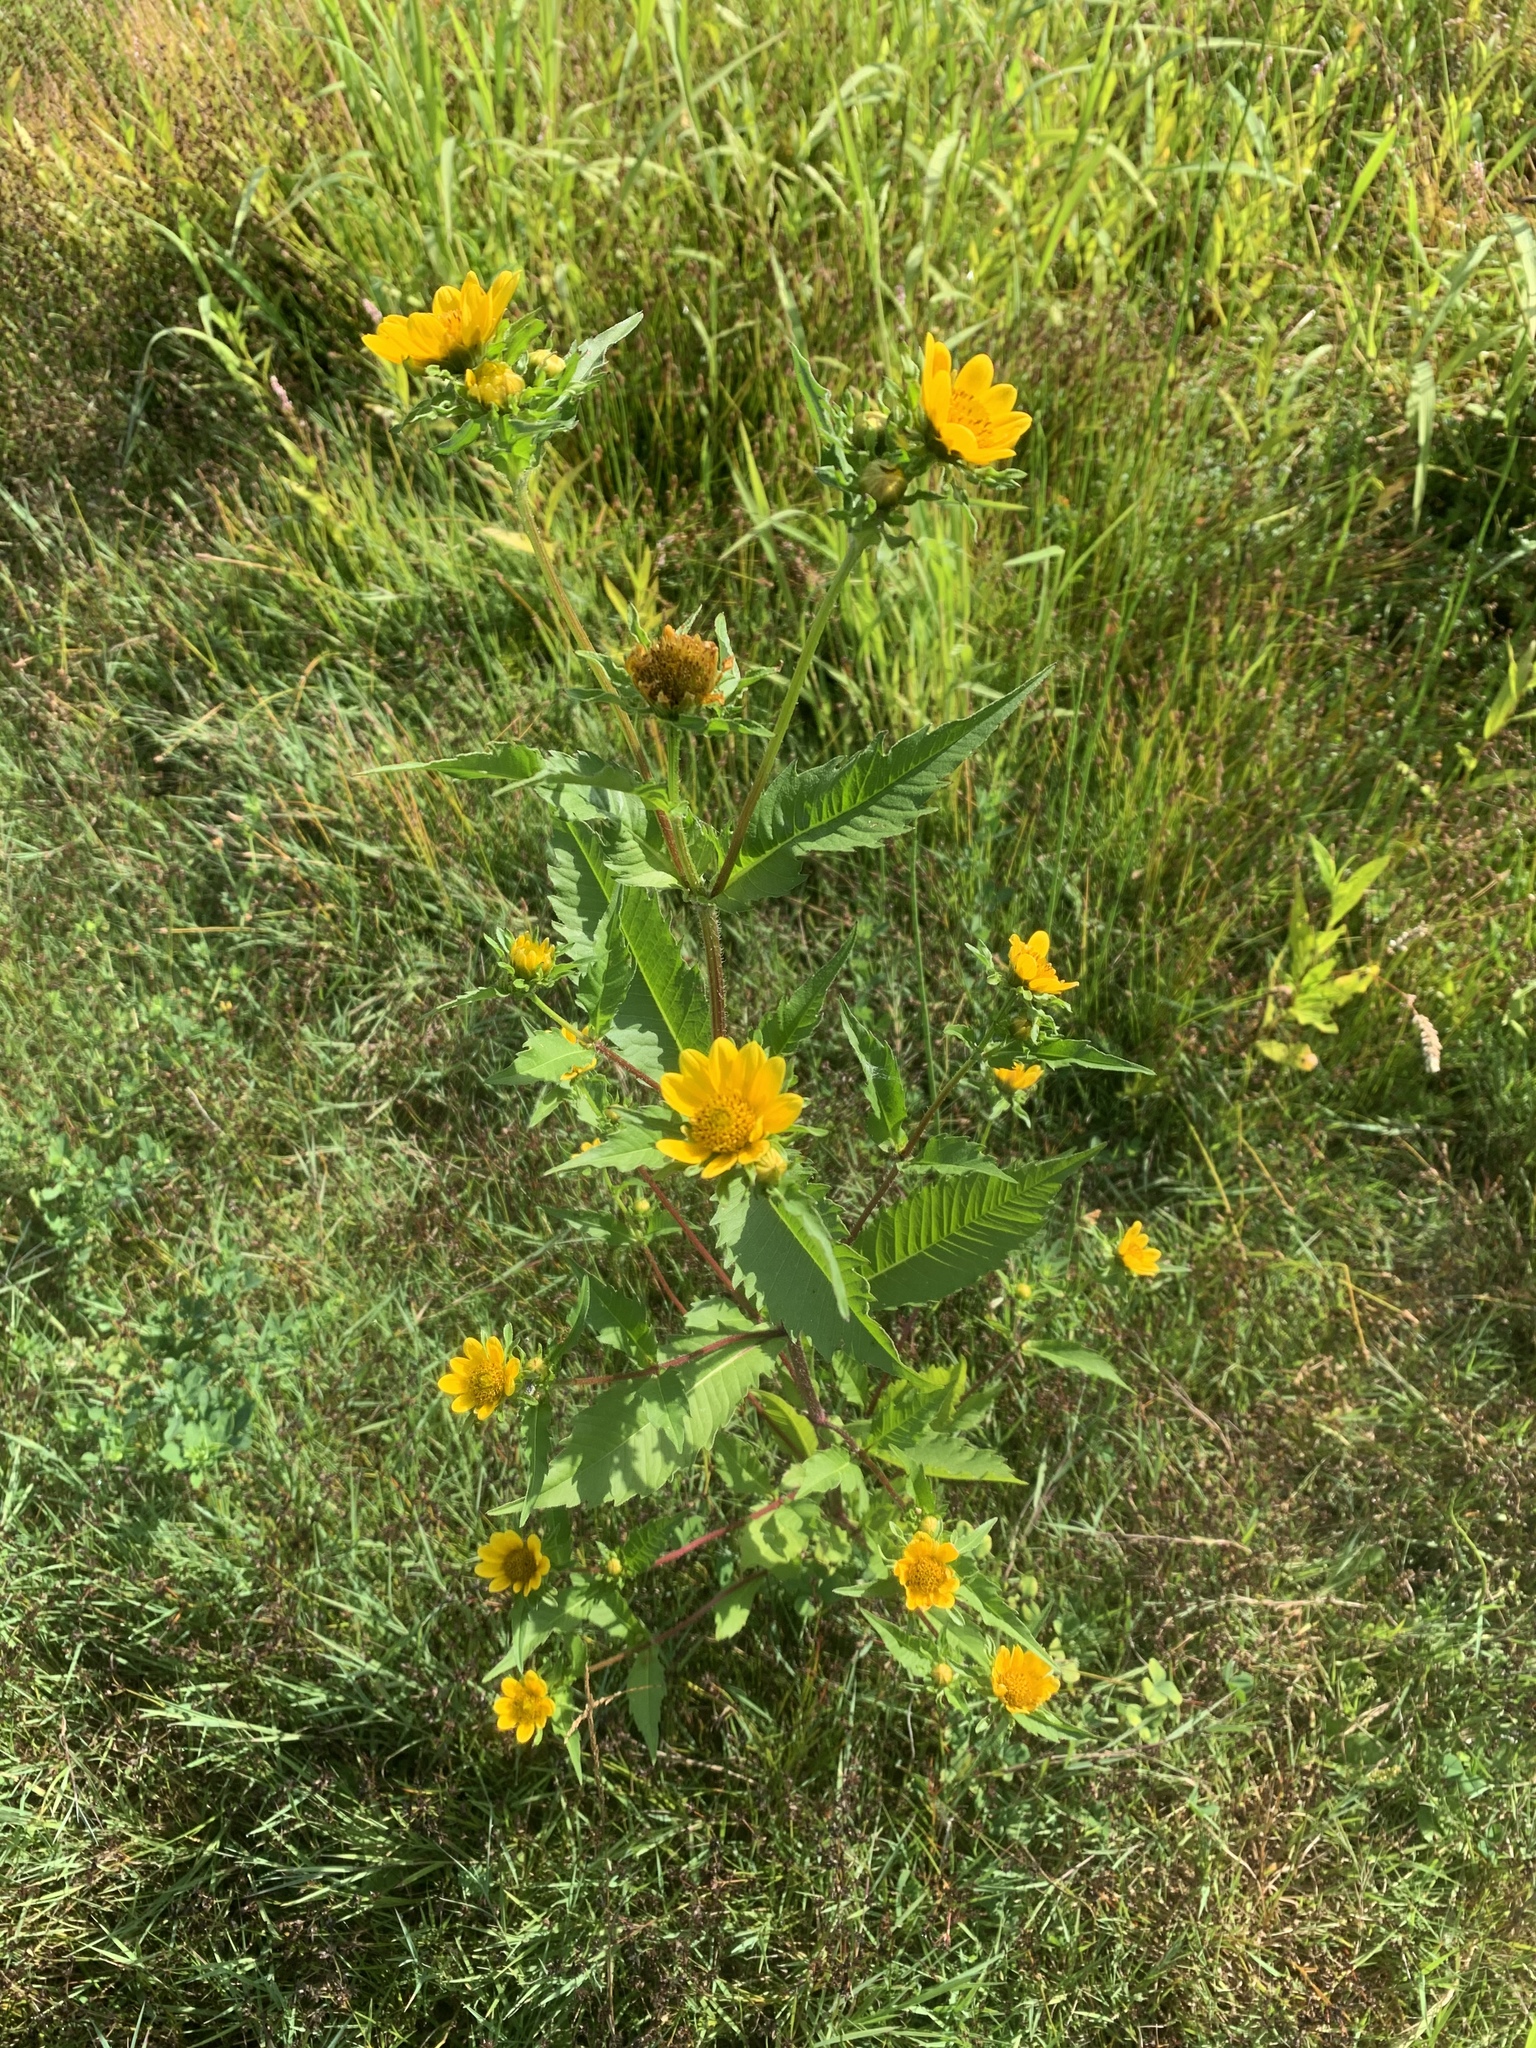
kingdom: Plantae
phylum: Tracheophyta
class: Magnoliopsida
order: Asterales
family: Asteraceae
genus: Bidens
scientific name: Bidens cernua
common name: Nodding bur-marigold
